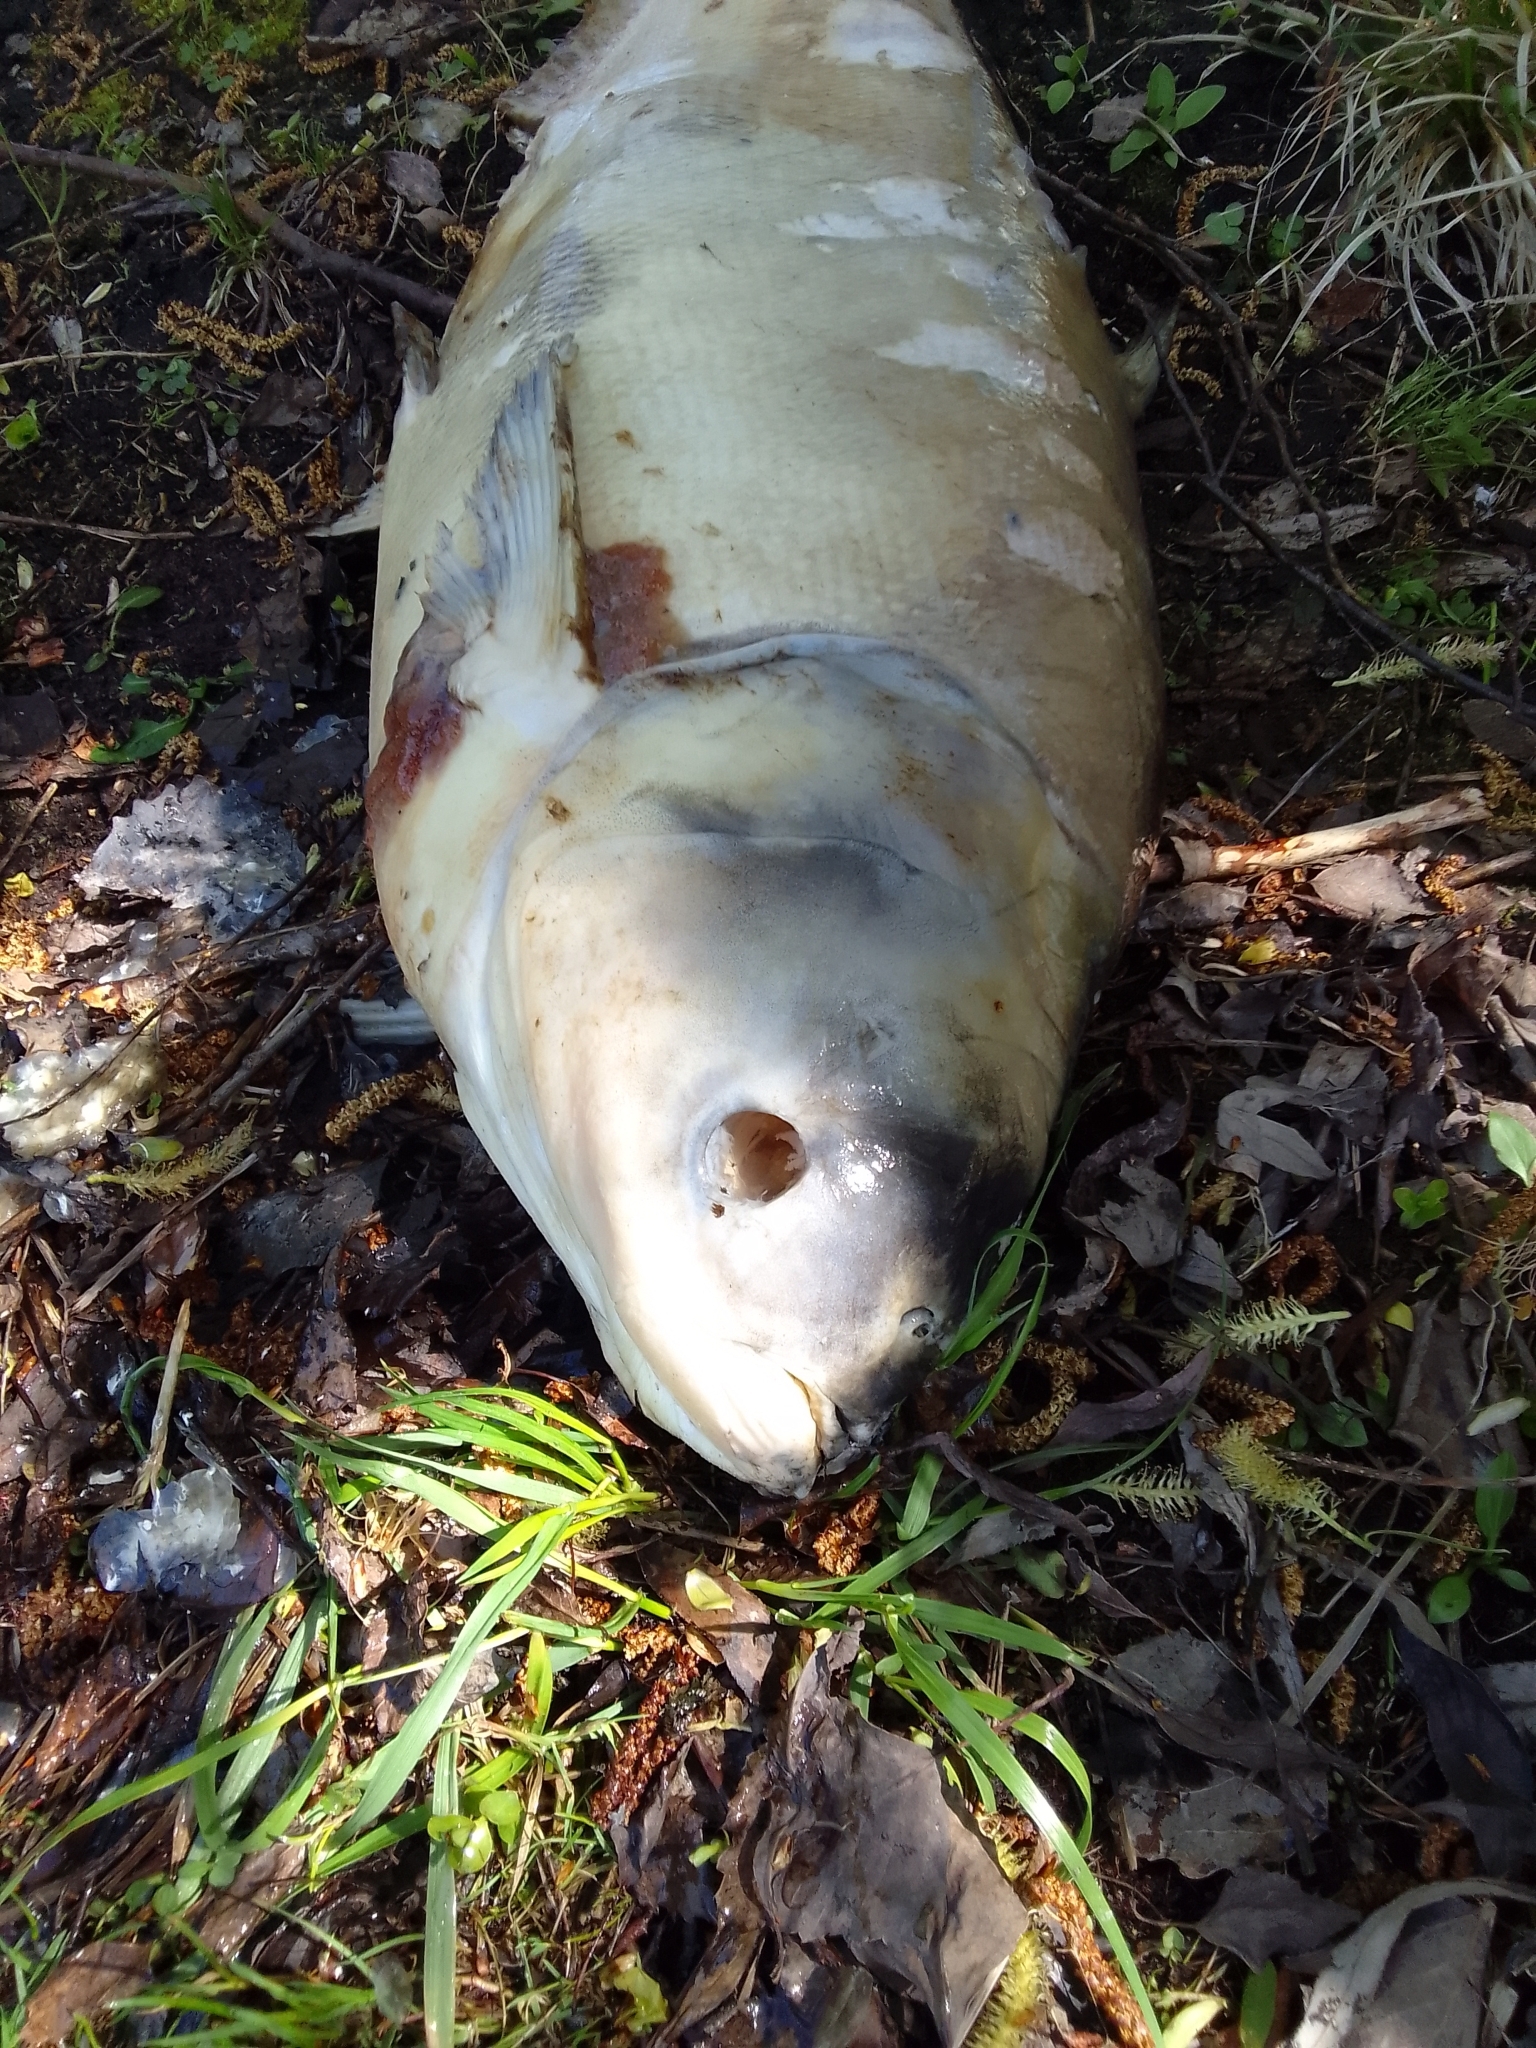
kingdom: Animalia
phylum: Chordata
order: Cypriniformes
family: Cyprinidae
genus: Hypophthalmichthys
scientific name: Hypophthalmichthys molitrix
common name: Silver carp
